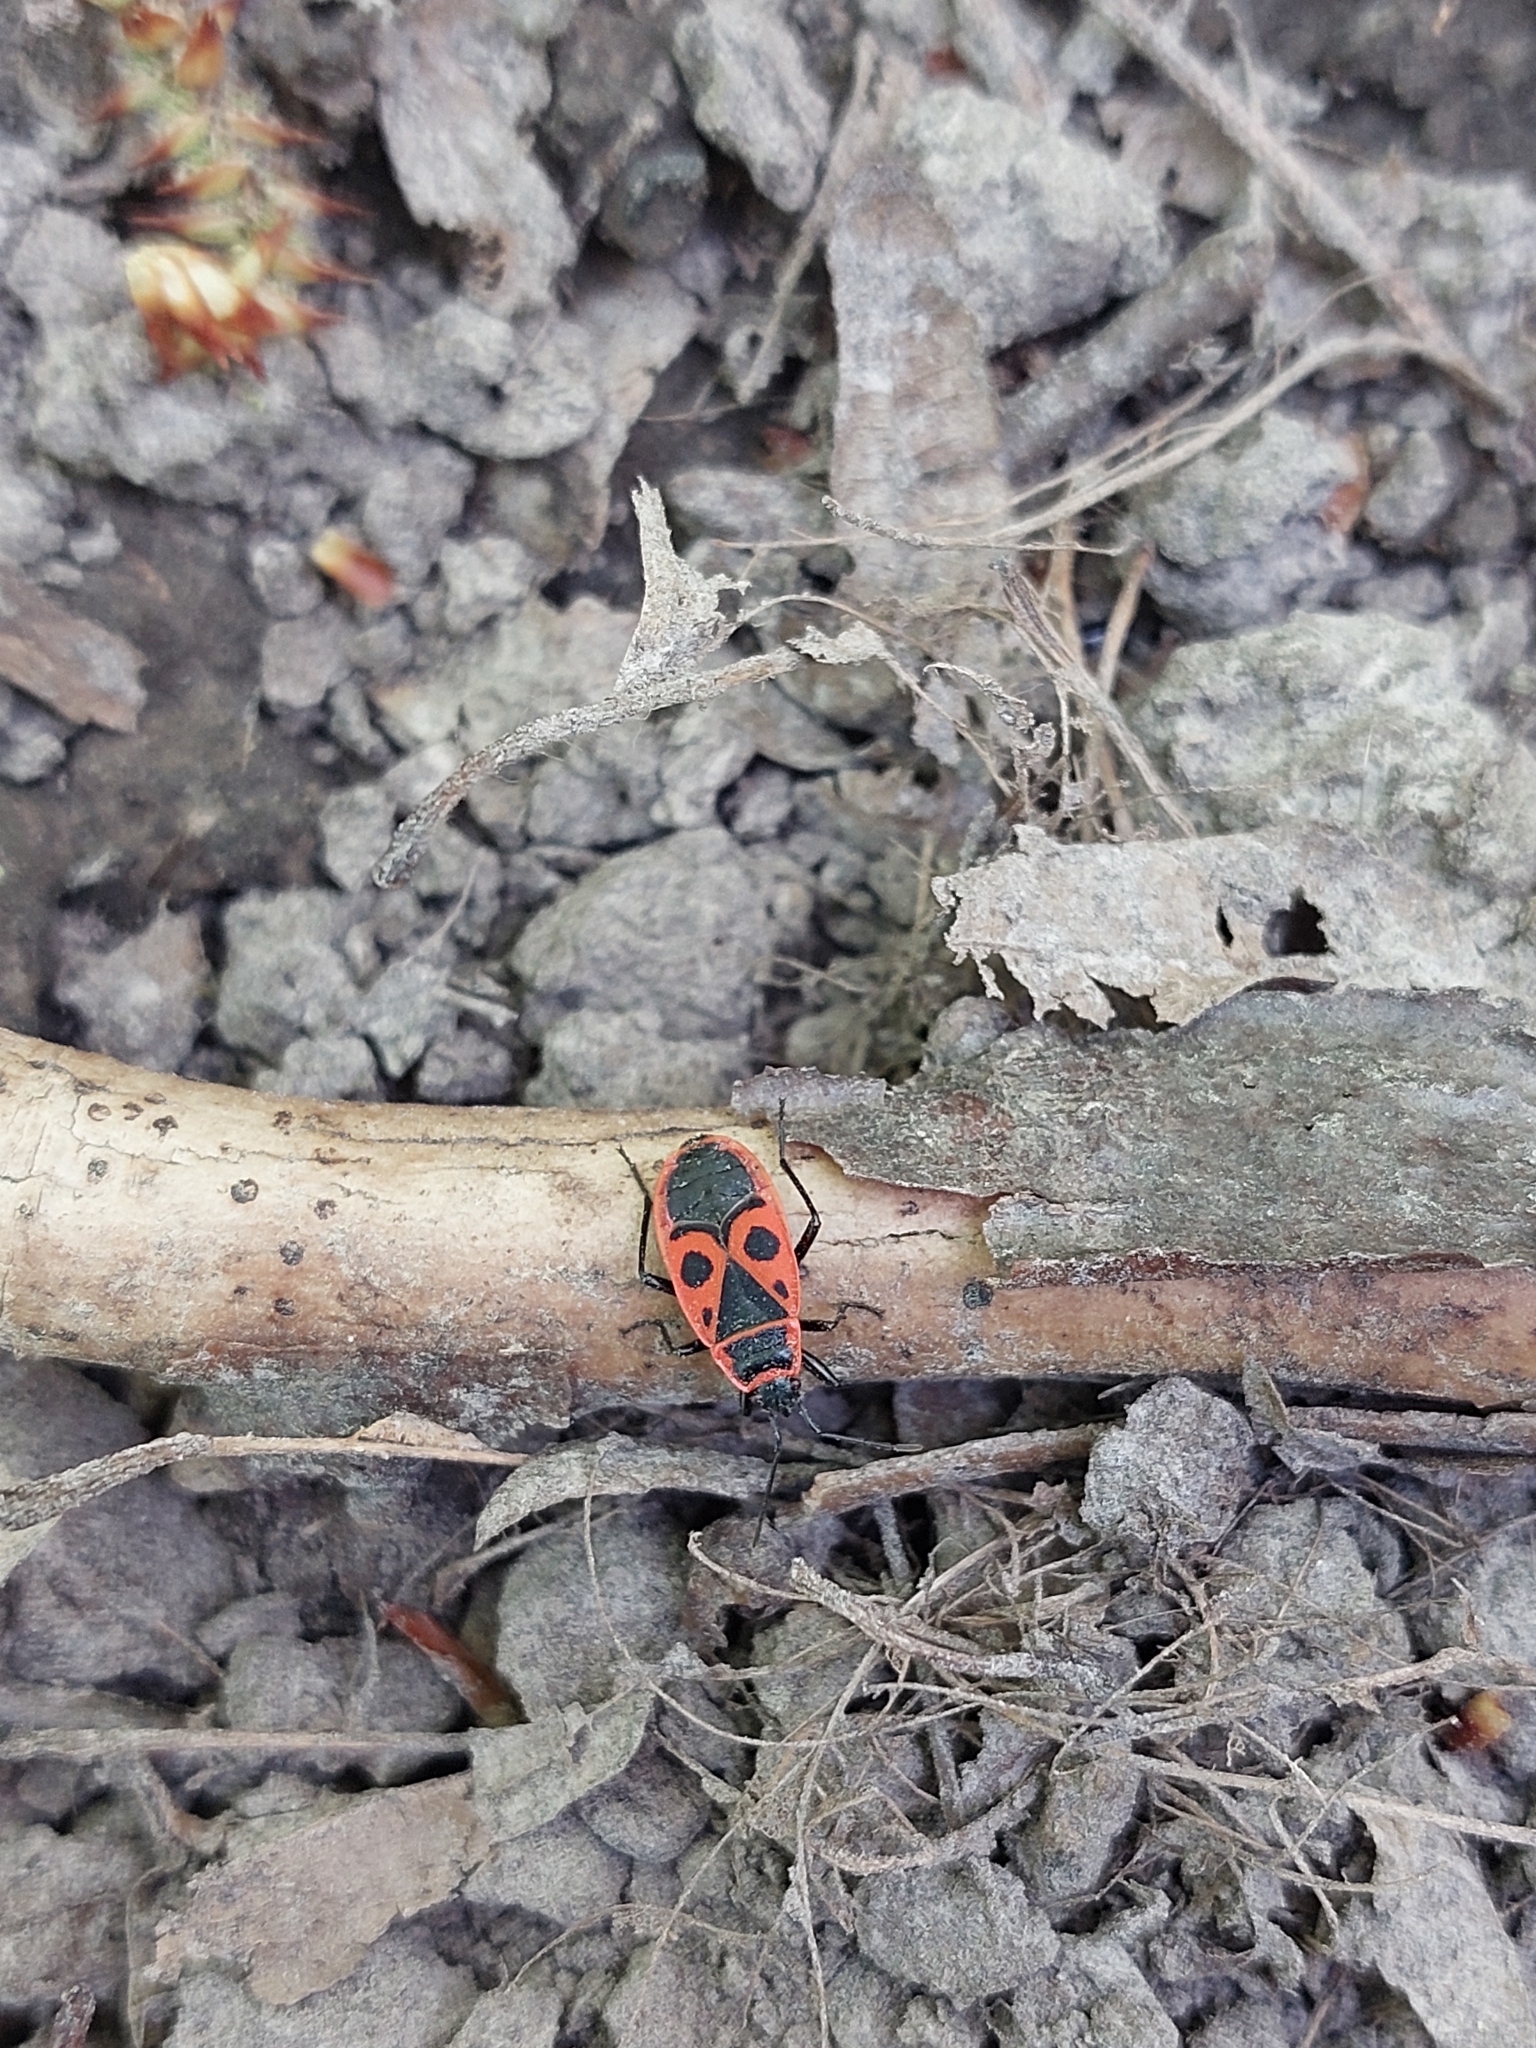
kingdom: Animalia
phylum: Arthropoda
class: Insecta
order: Hemiptera
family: Pyrrhocoridae
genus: Pyrrhocoris
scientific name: Pyrrhocoris apterus
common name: Firebug
